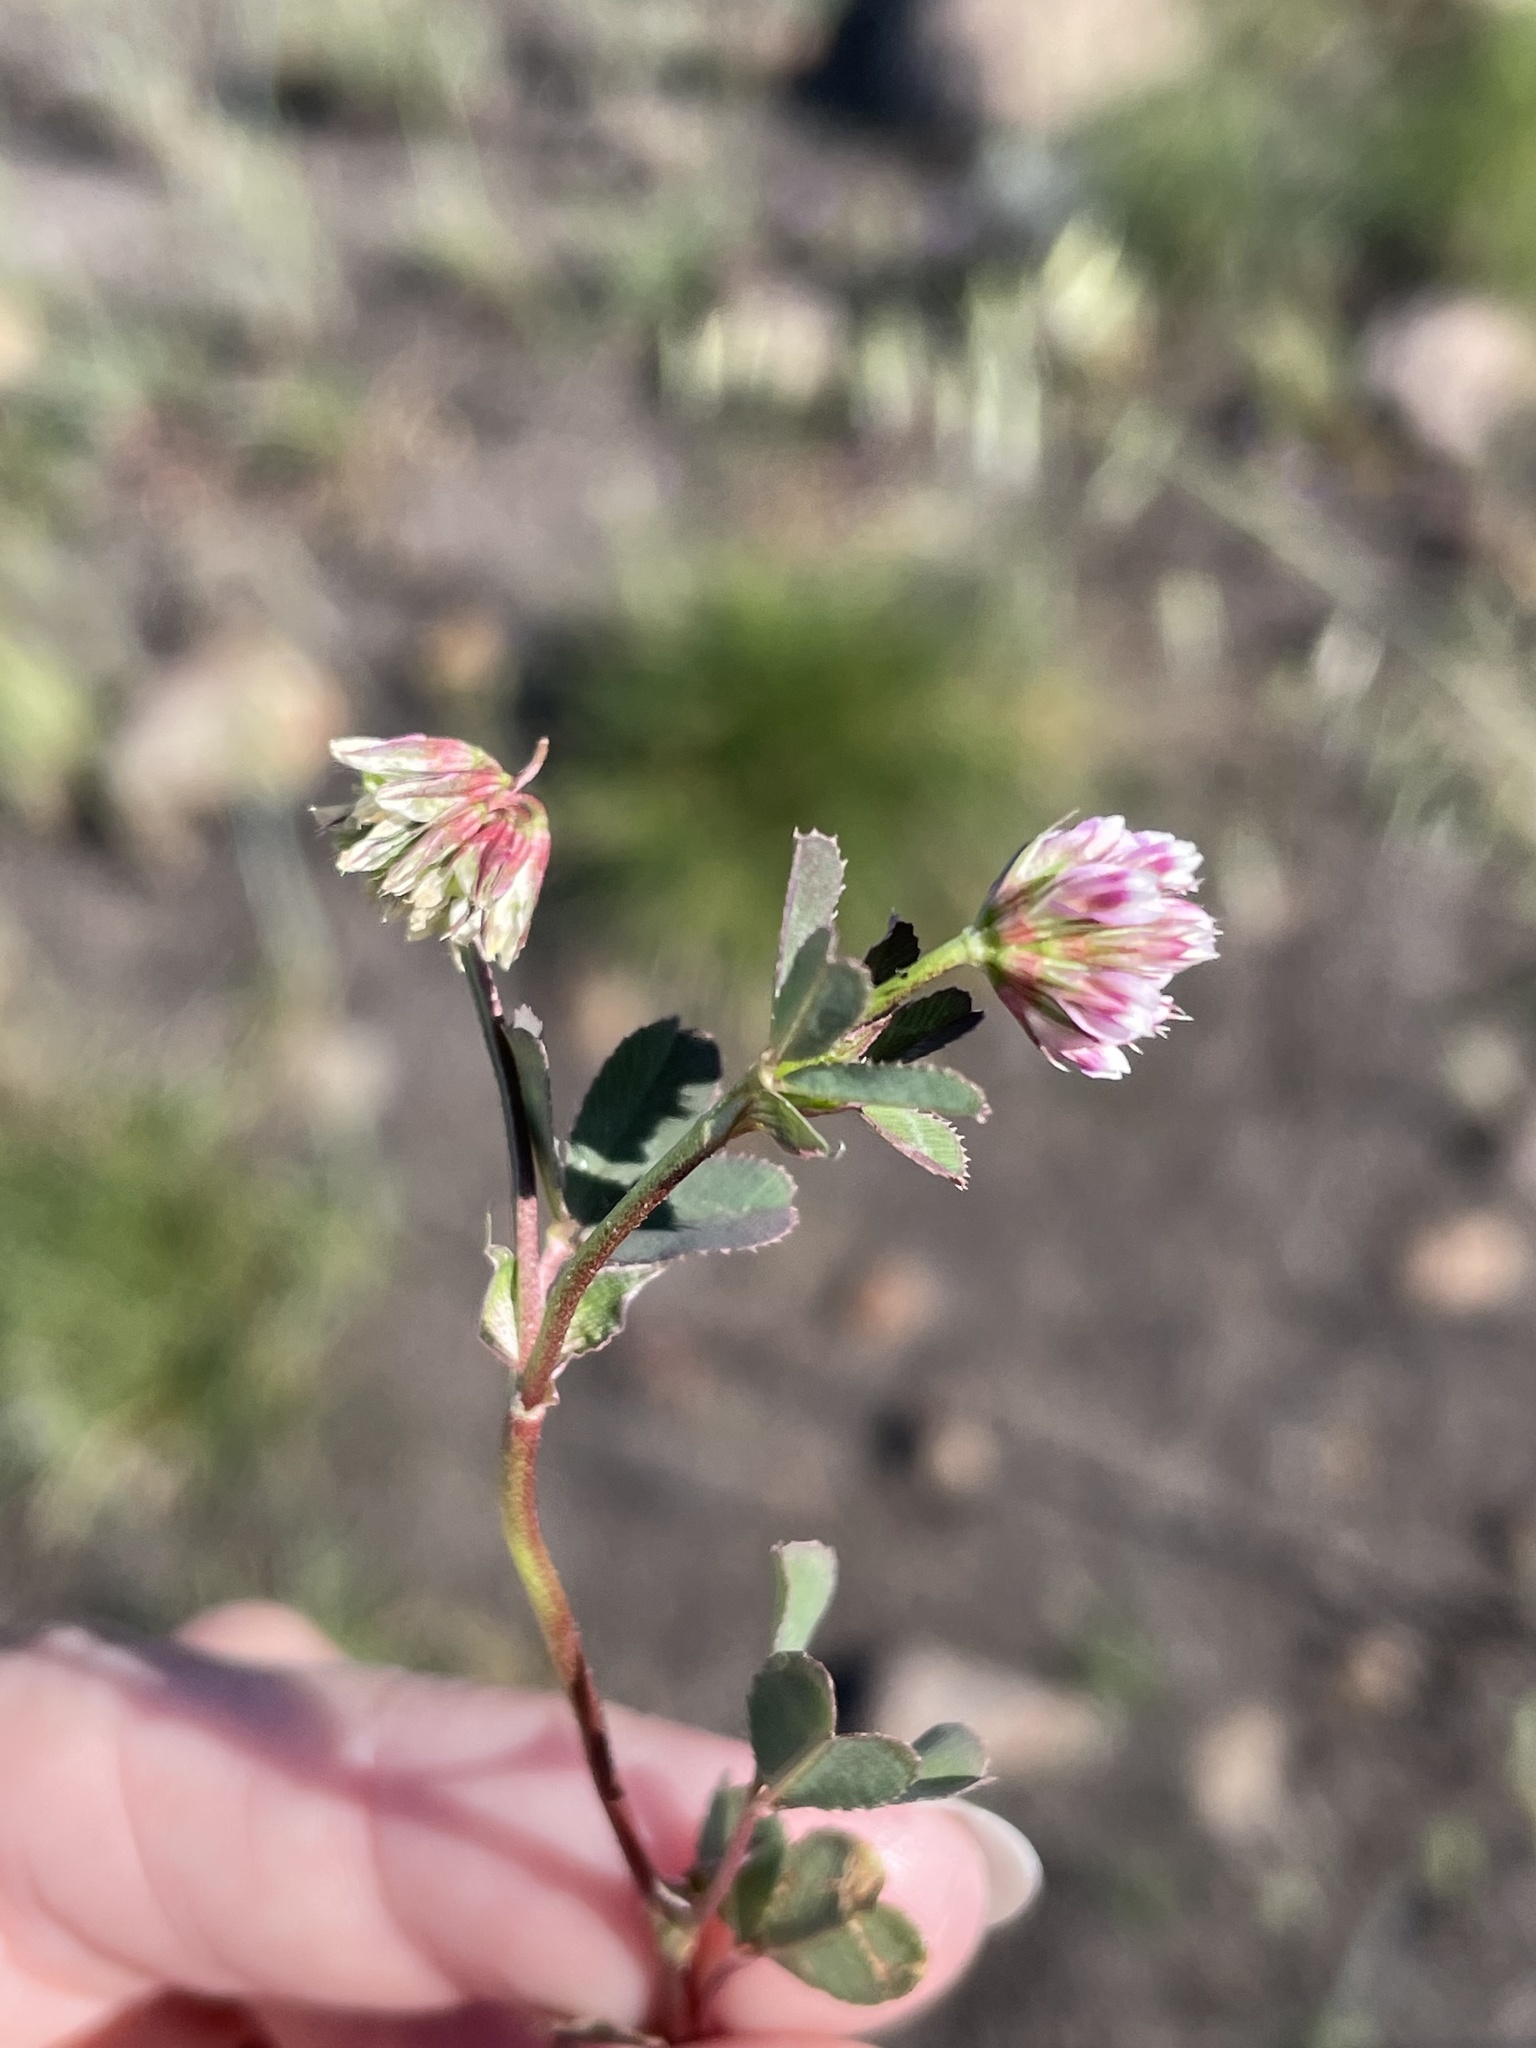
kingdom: Plantae
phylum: Tracheophyta
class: Magnoliopsida
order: Fabales
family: Fabaceae
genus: Trifolium
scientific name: Trifolium palmeri
